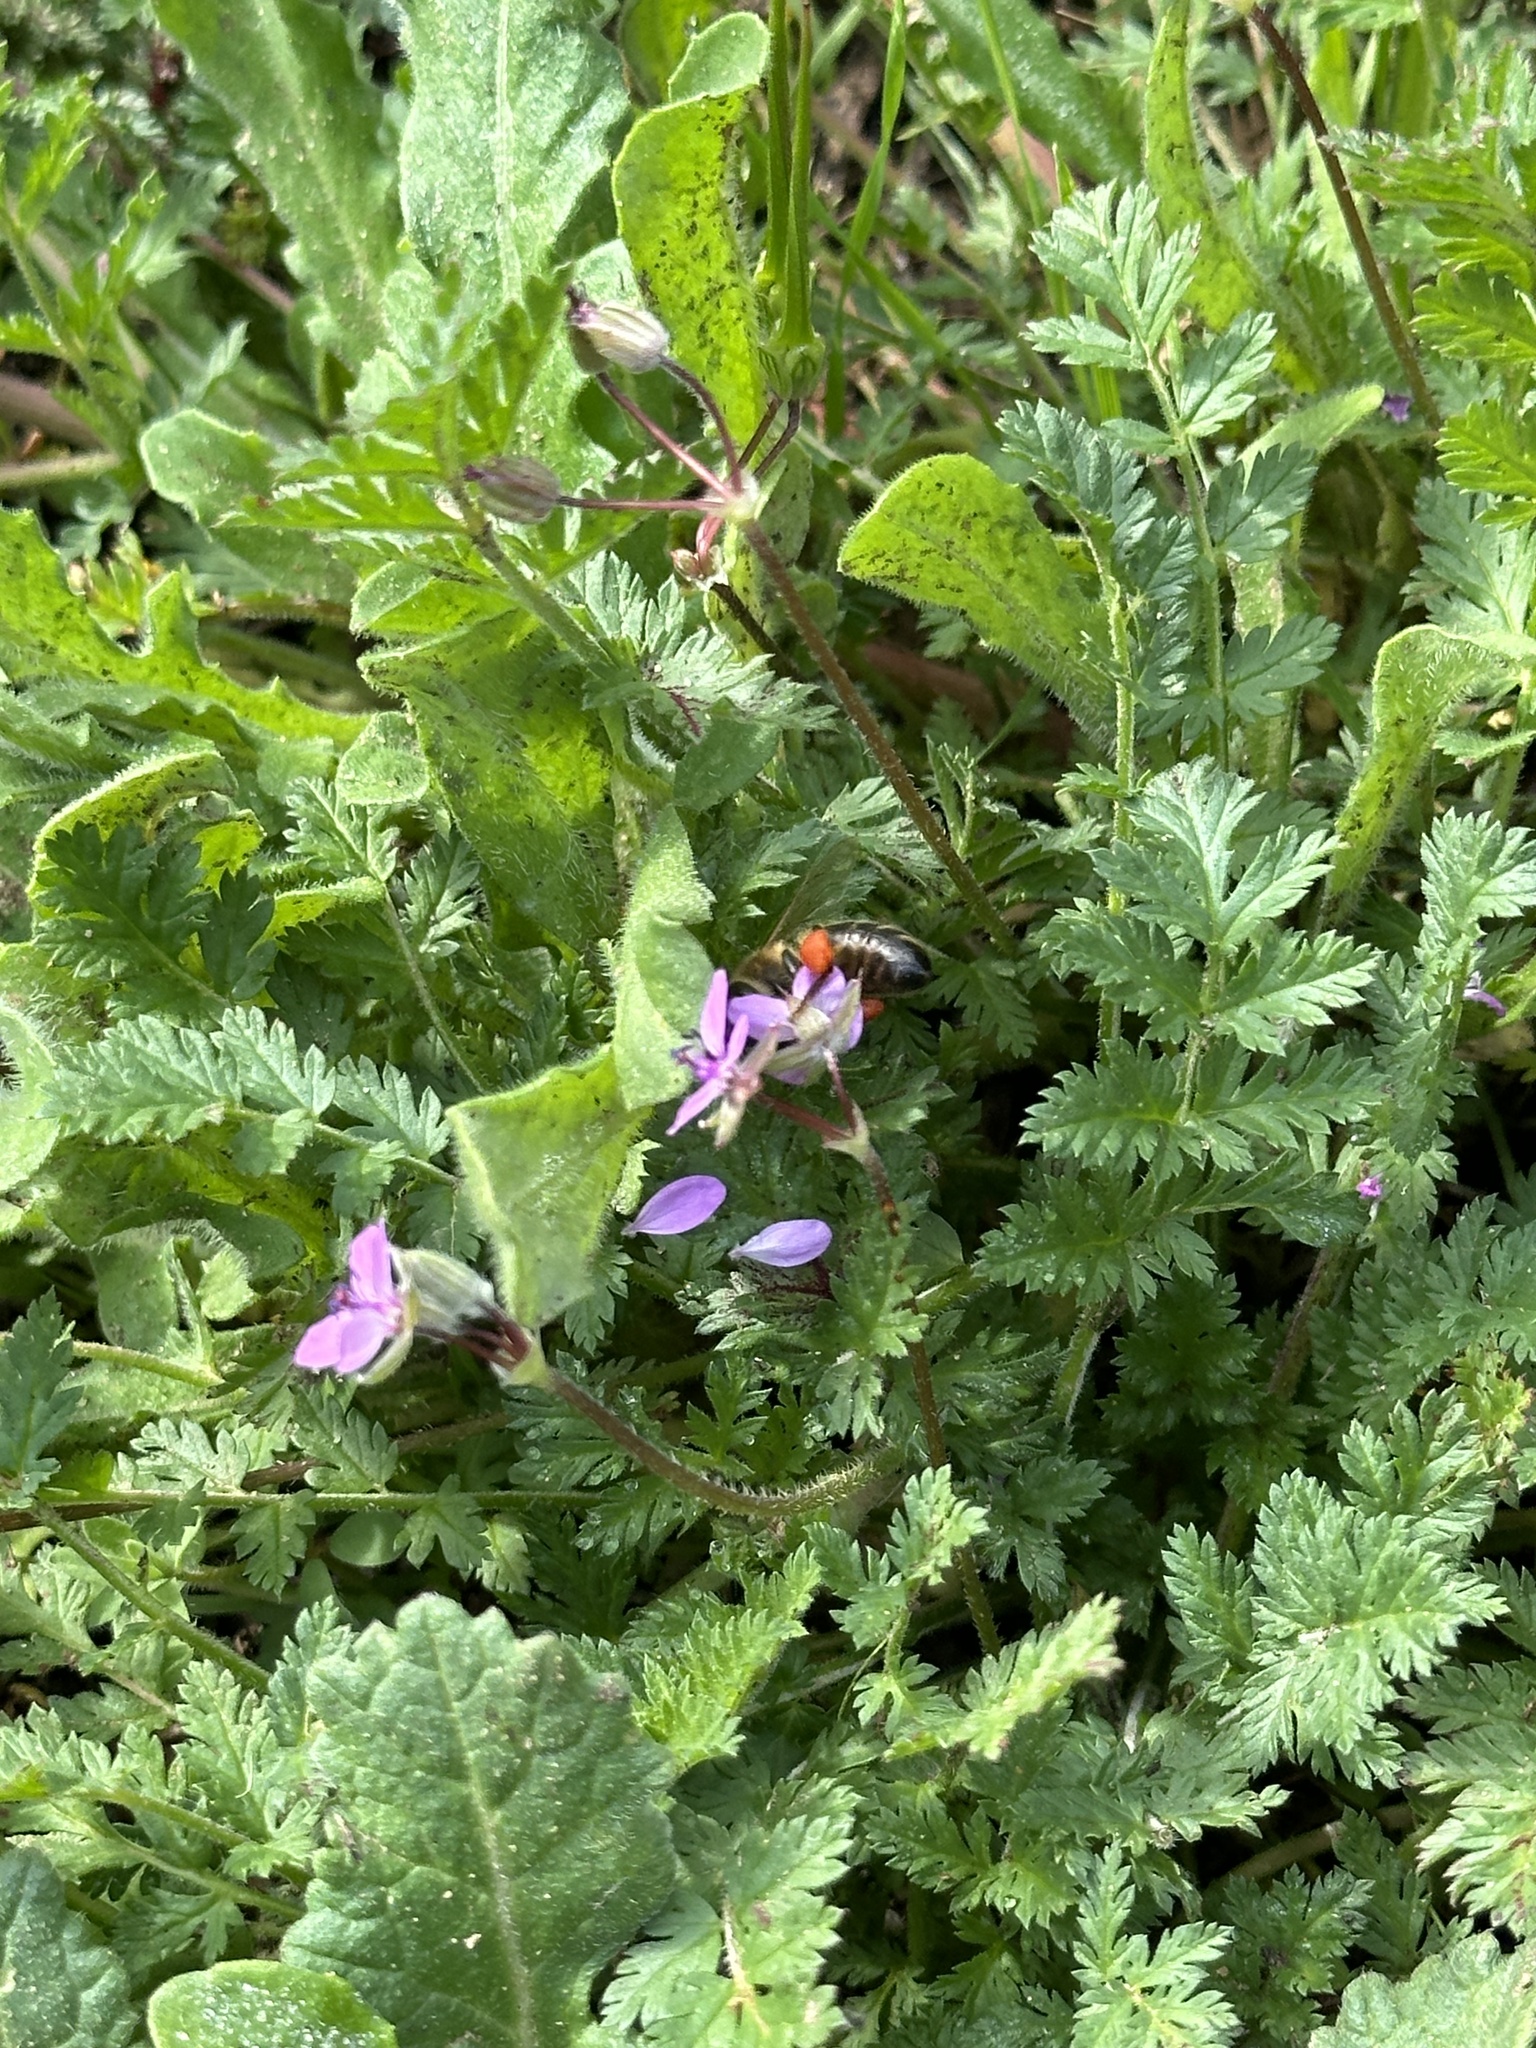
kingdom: Plantae
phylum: Tracheophyta
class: Magnoliopsida
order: Geraniales
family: Geraniaceae
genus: Erodium
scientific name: Erodium cicutarium
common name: Common stork's-bill
